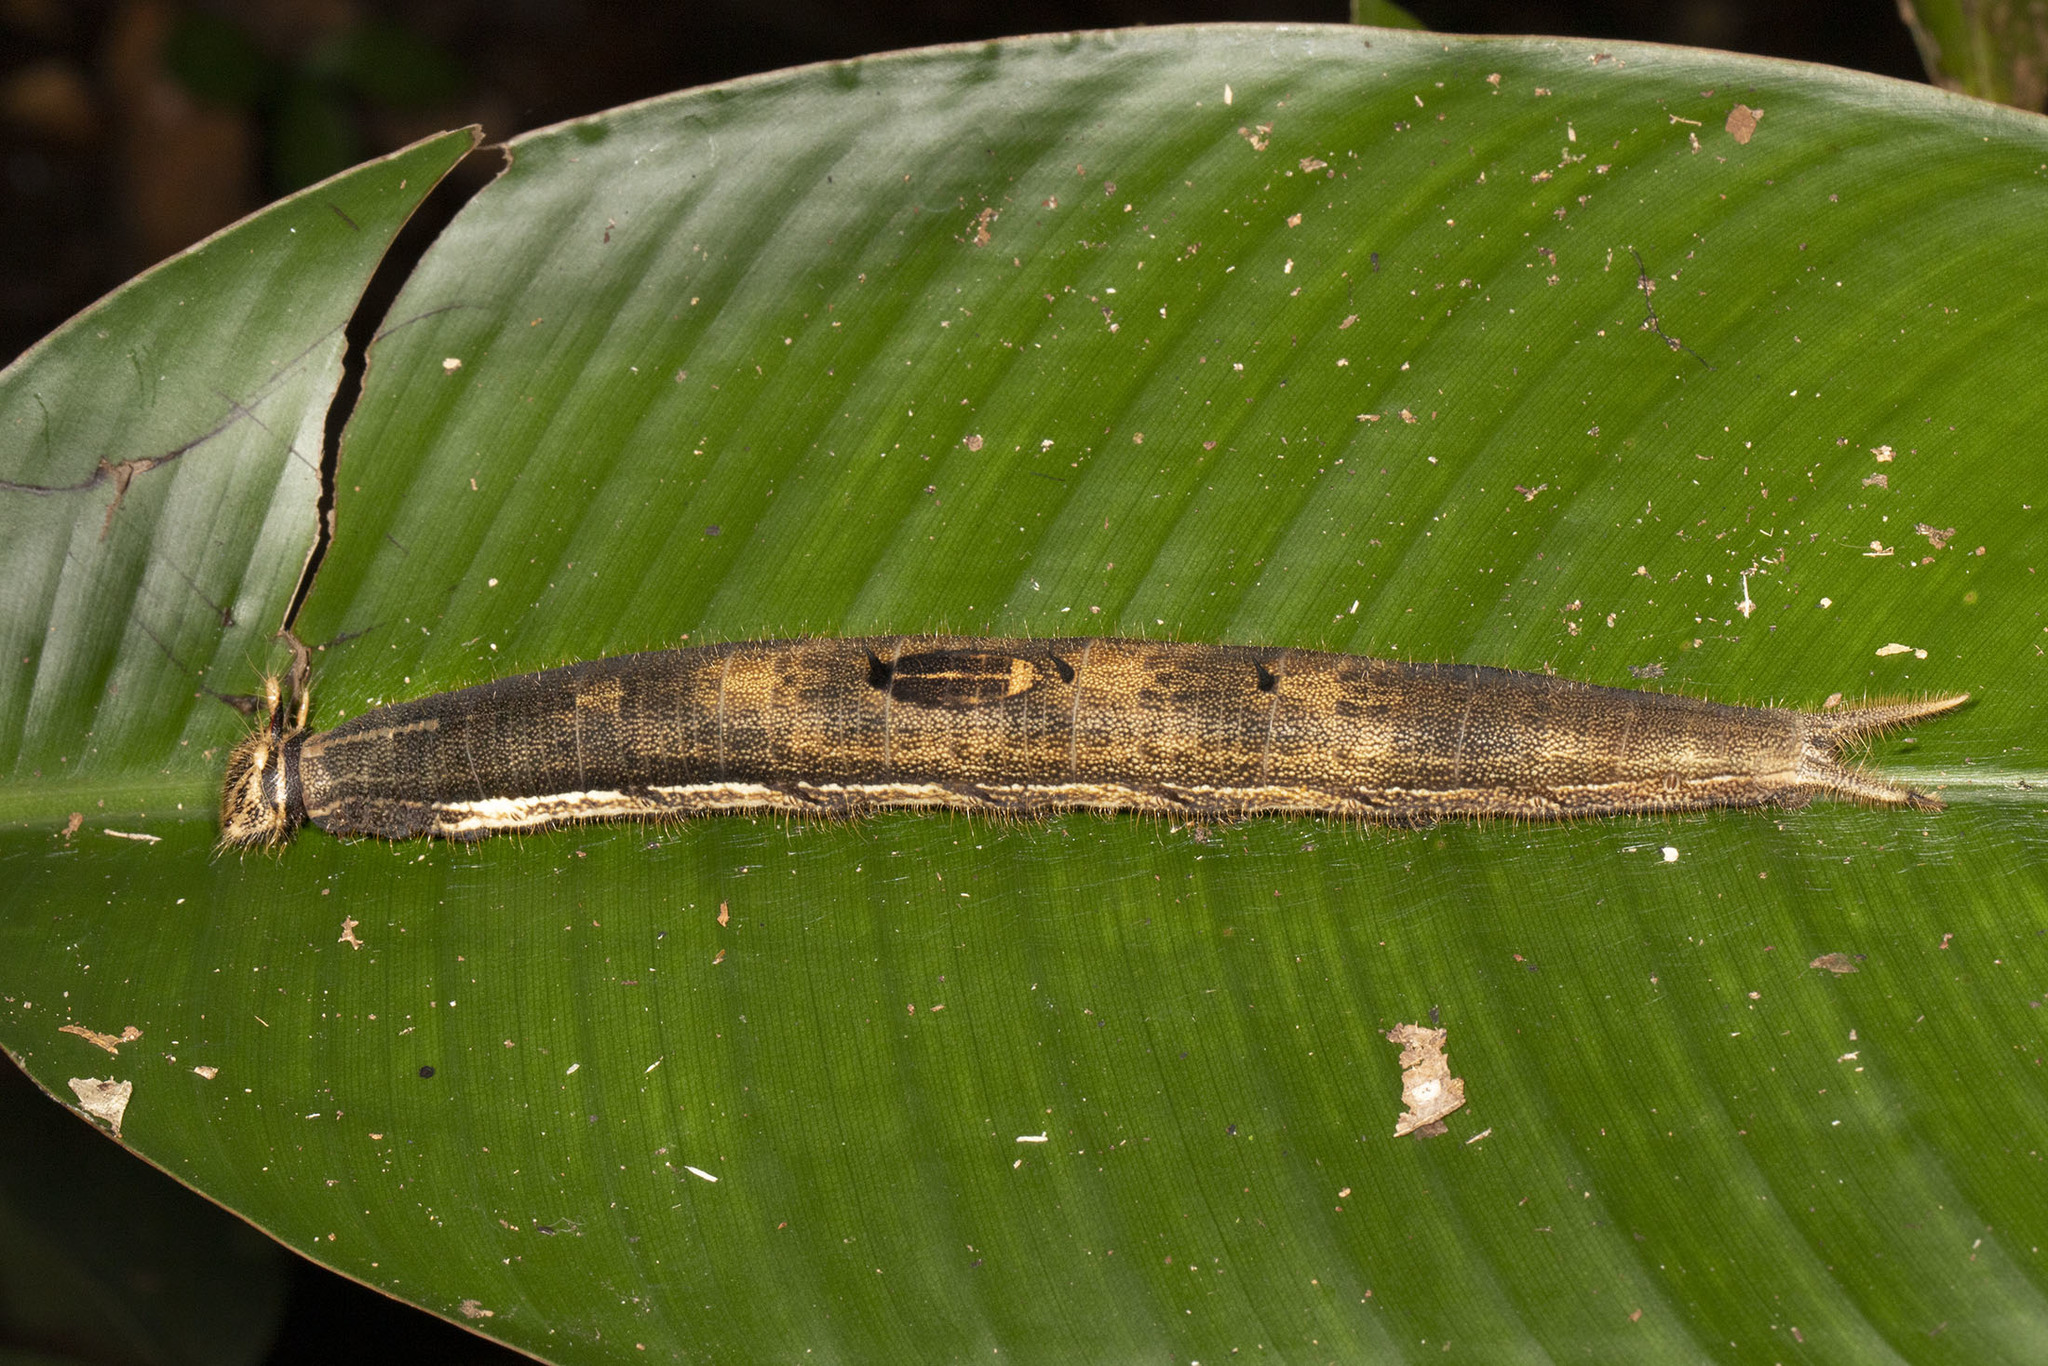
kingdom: Animalia
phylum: Arthropoda
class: Insecta
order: Lepidoptera
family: Nymphalidae
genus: Caligo
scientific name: Caligo idomeneus
